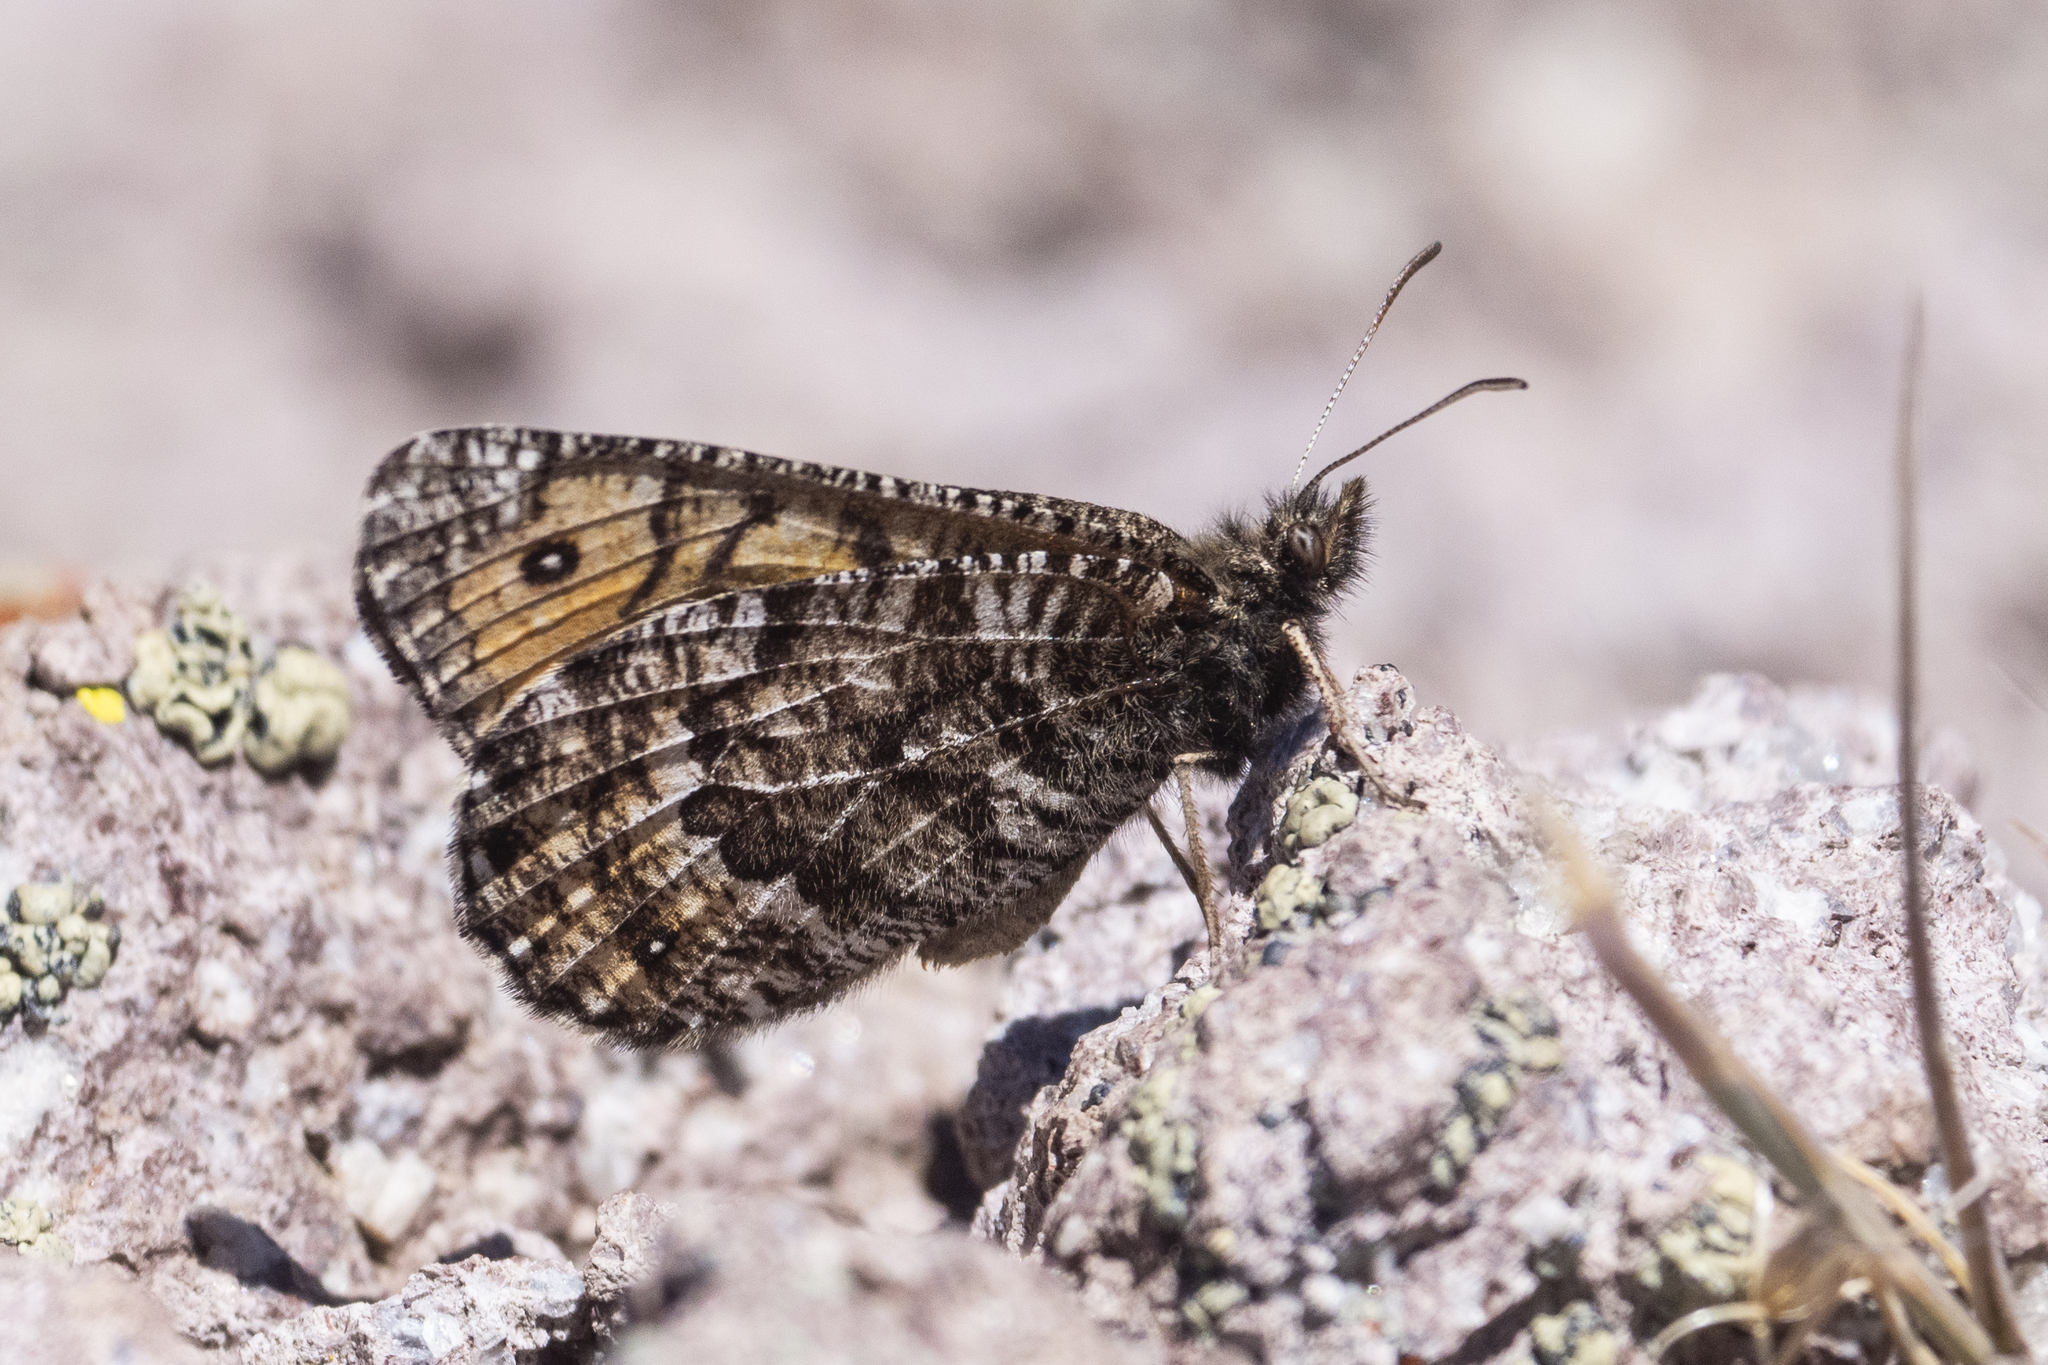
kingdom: Animalia
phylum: Arthropoda
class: Insecta
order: Lepidoptera
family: Nymphalidae
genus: Oeneis
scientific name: Oeneis chryxus
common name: Chryxus arctic
